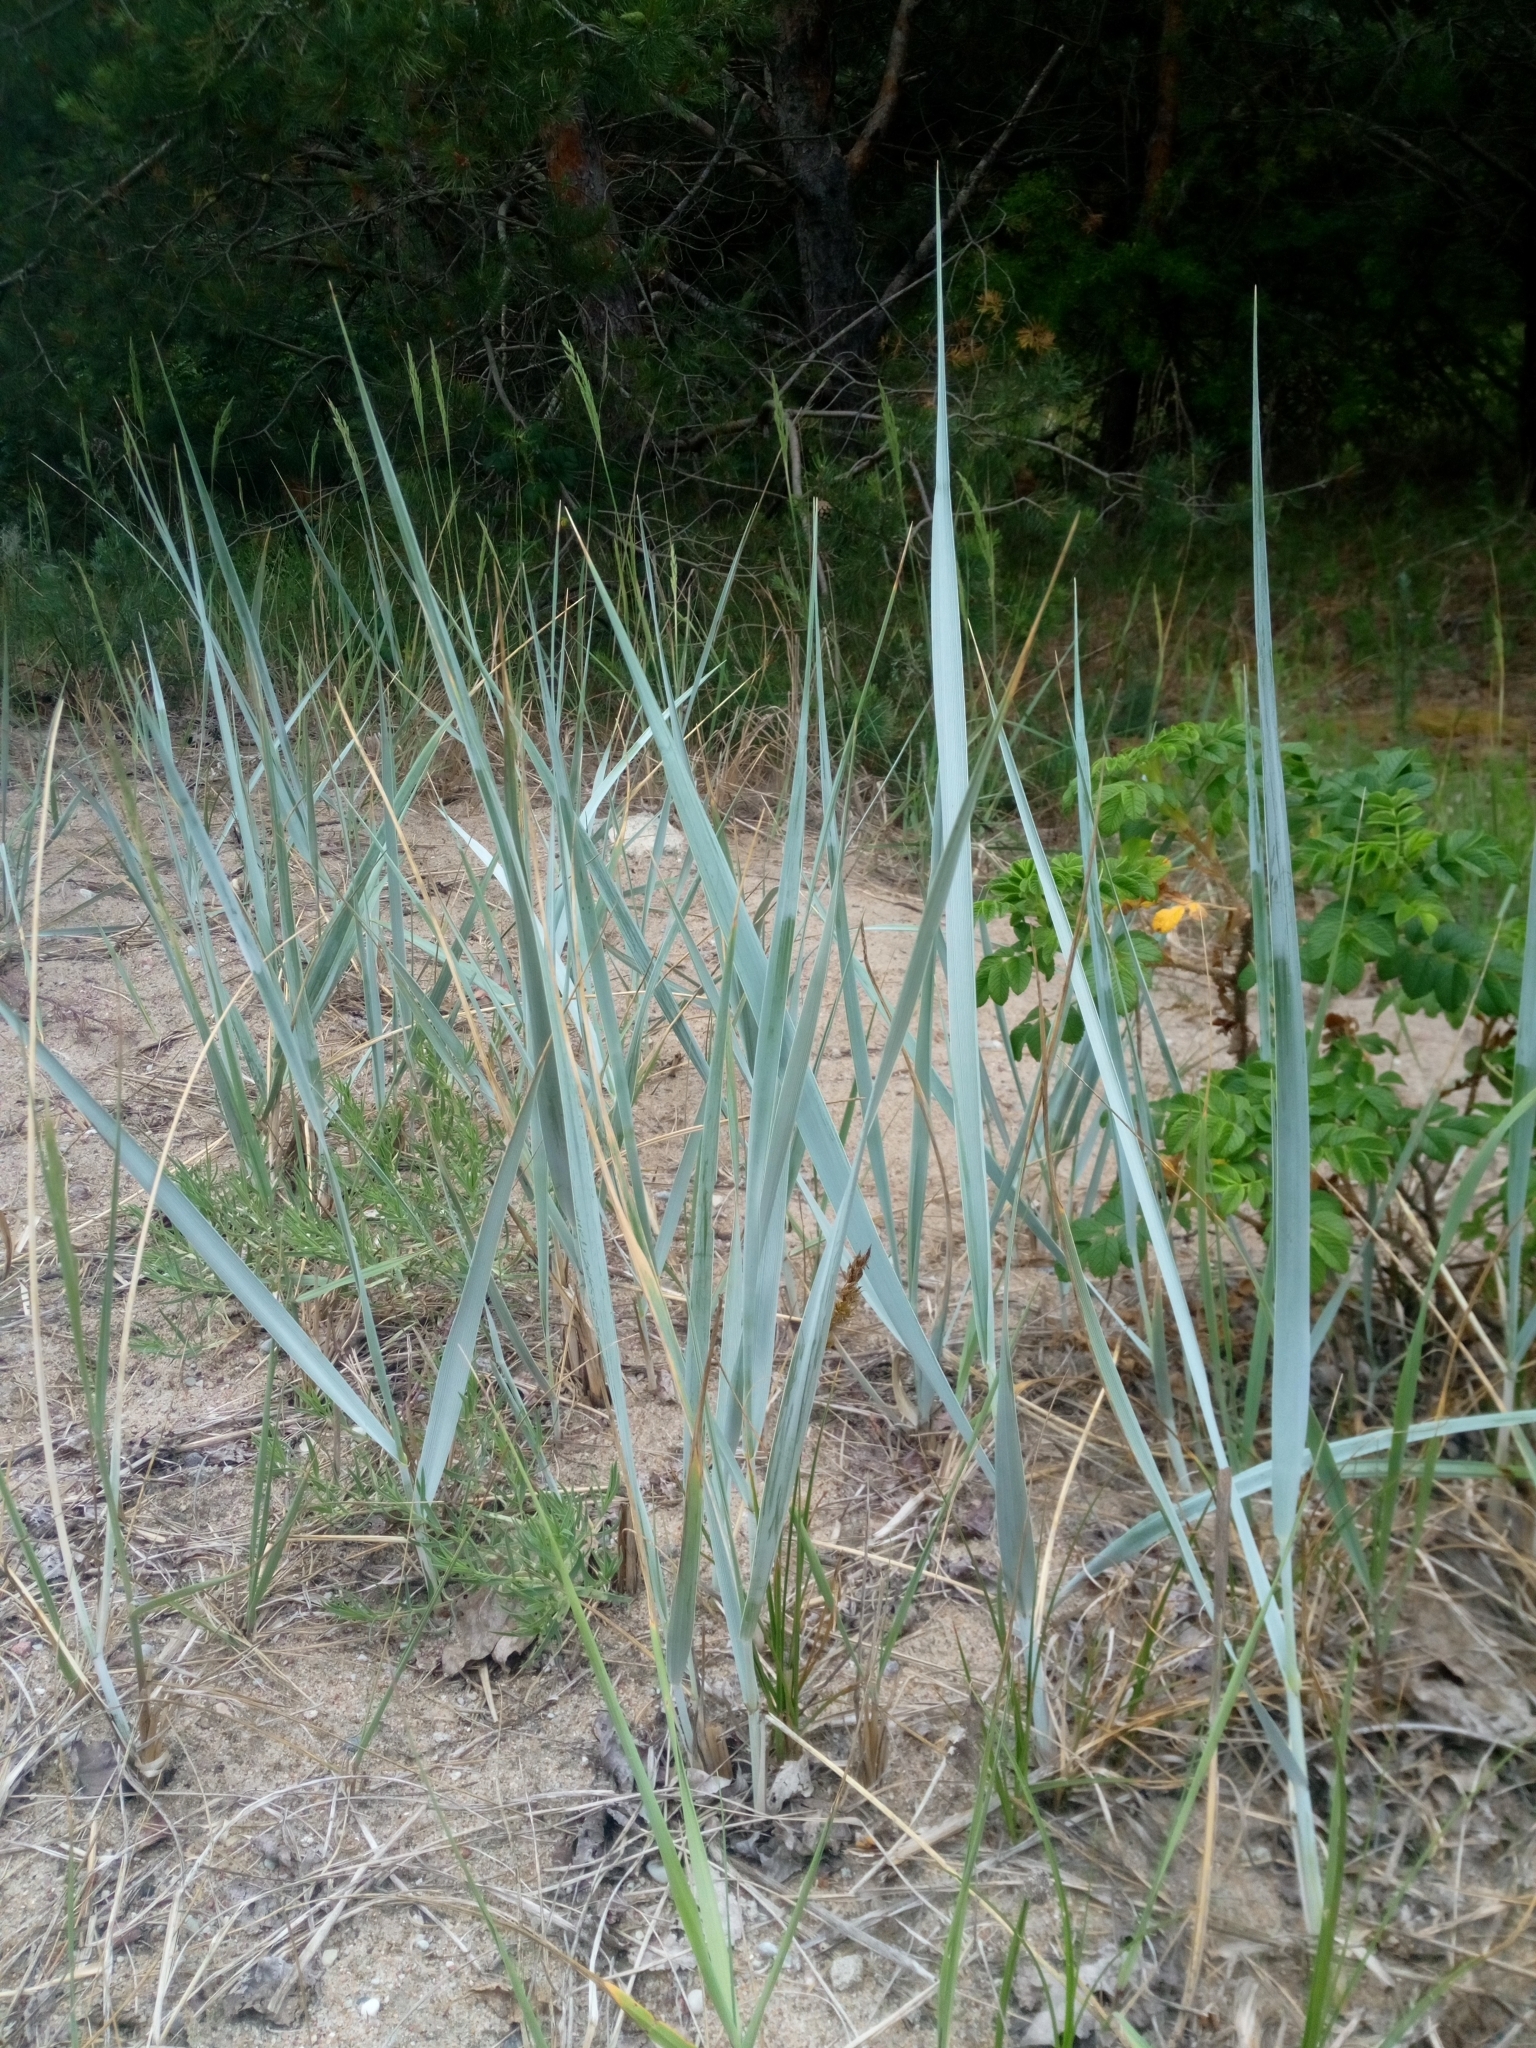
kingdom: Plantae
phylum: Tracheophyta
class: Liliopsida
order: Poales
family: Poaceae
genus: Leymus
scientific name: Leymus arenarius
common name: Lyme-grass
